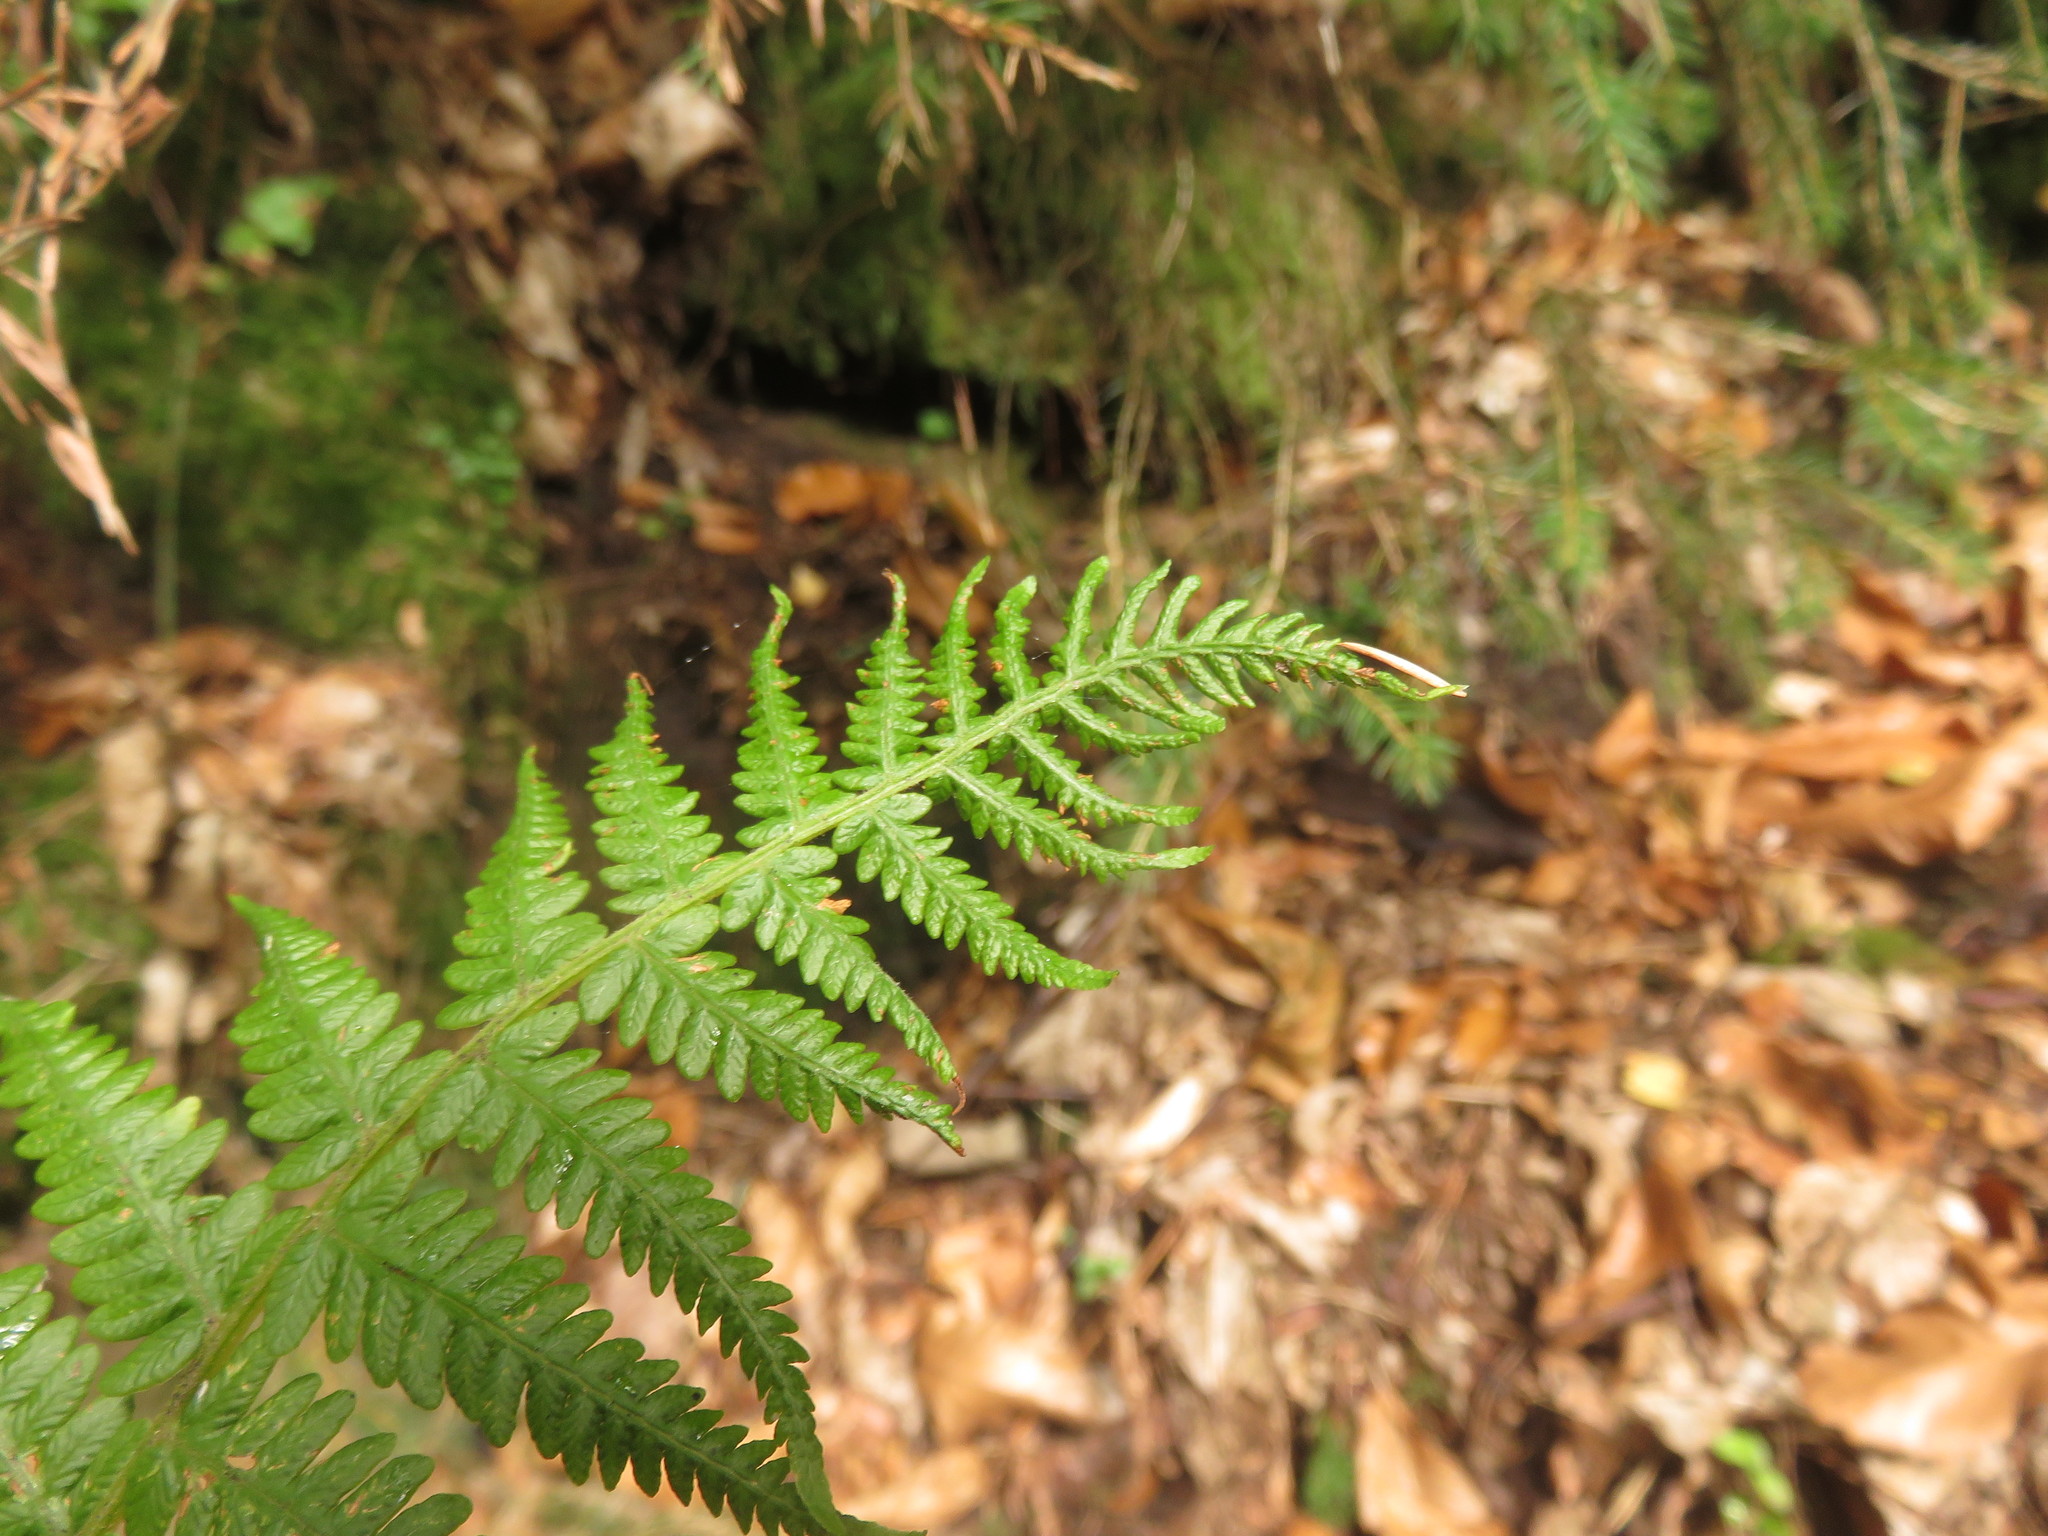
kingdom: Plantae
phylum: Tracheophyta
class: Polypodiopsida
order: Polypodiales
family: Thelypteridaceae
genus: Oreopteris
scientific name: Oreopteris limbosperma
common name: Lemon-scented fern
